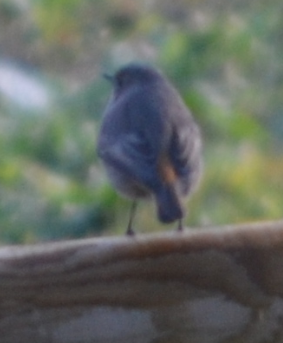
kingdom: Animalia
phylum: Chordata
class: Aves
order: Passeriformes
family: Muscicapidae
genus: Phoenicurus
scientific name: Phoenicurus ochruros
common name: Black redstart
